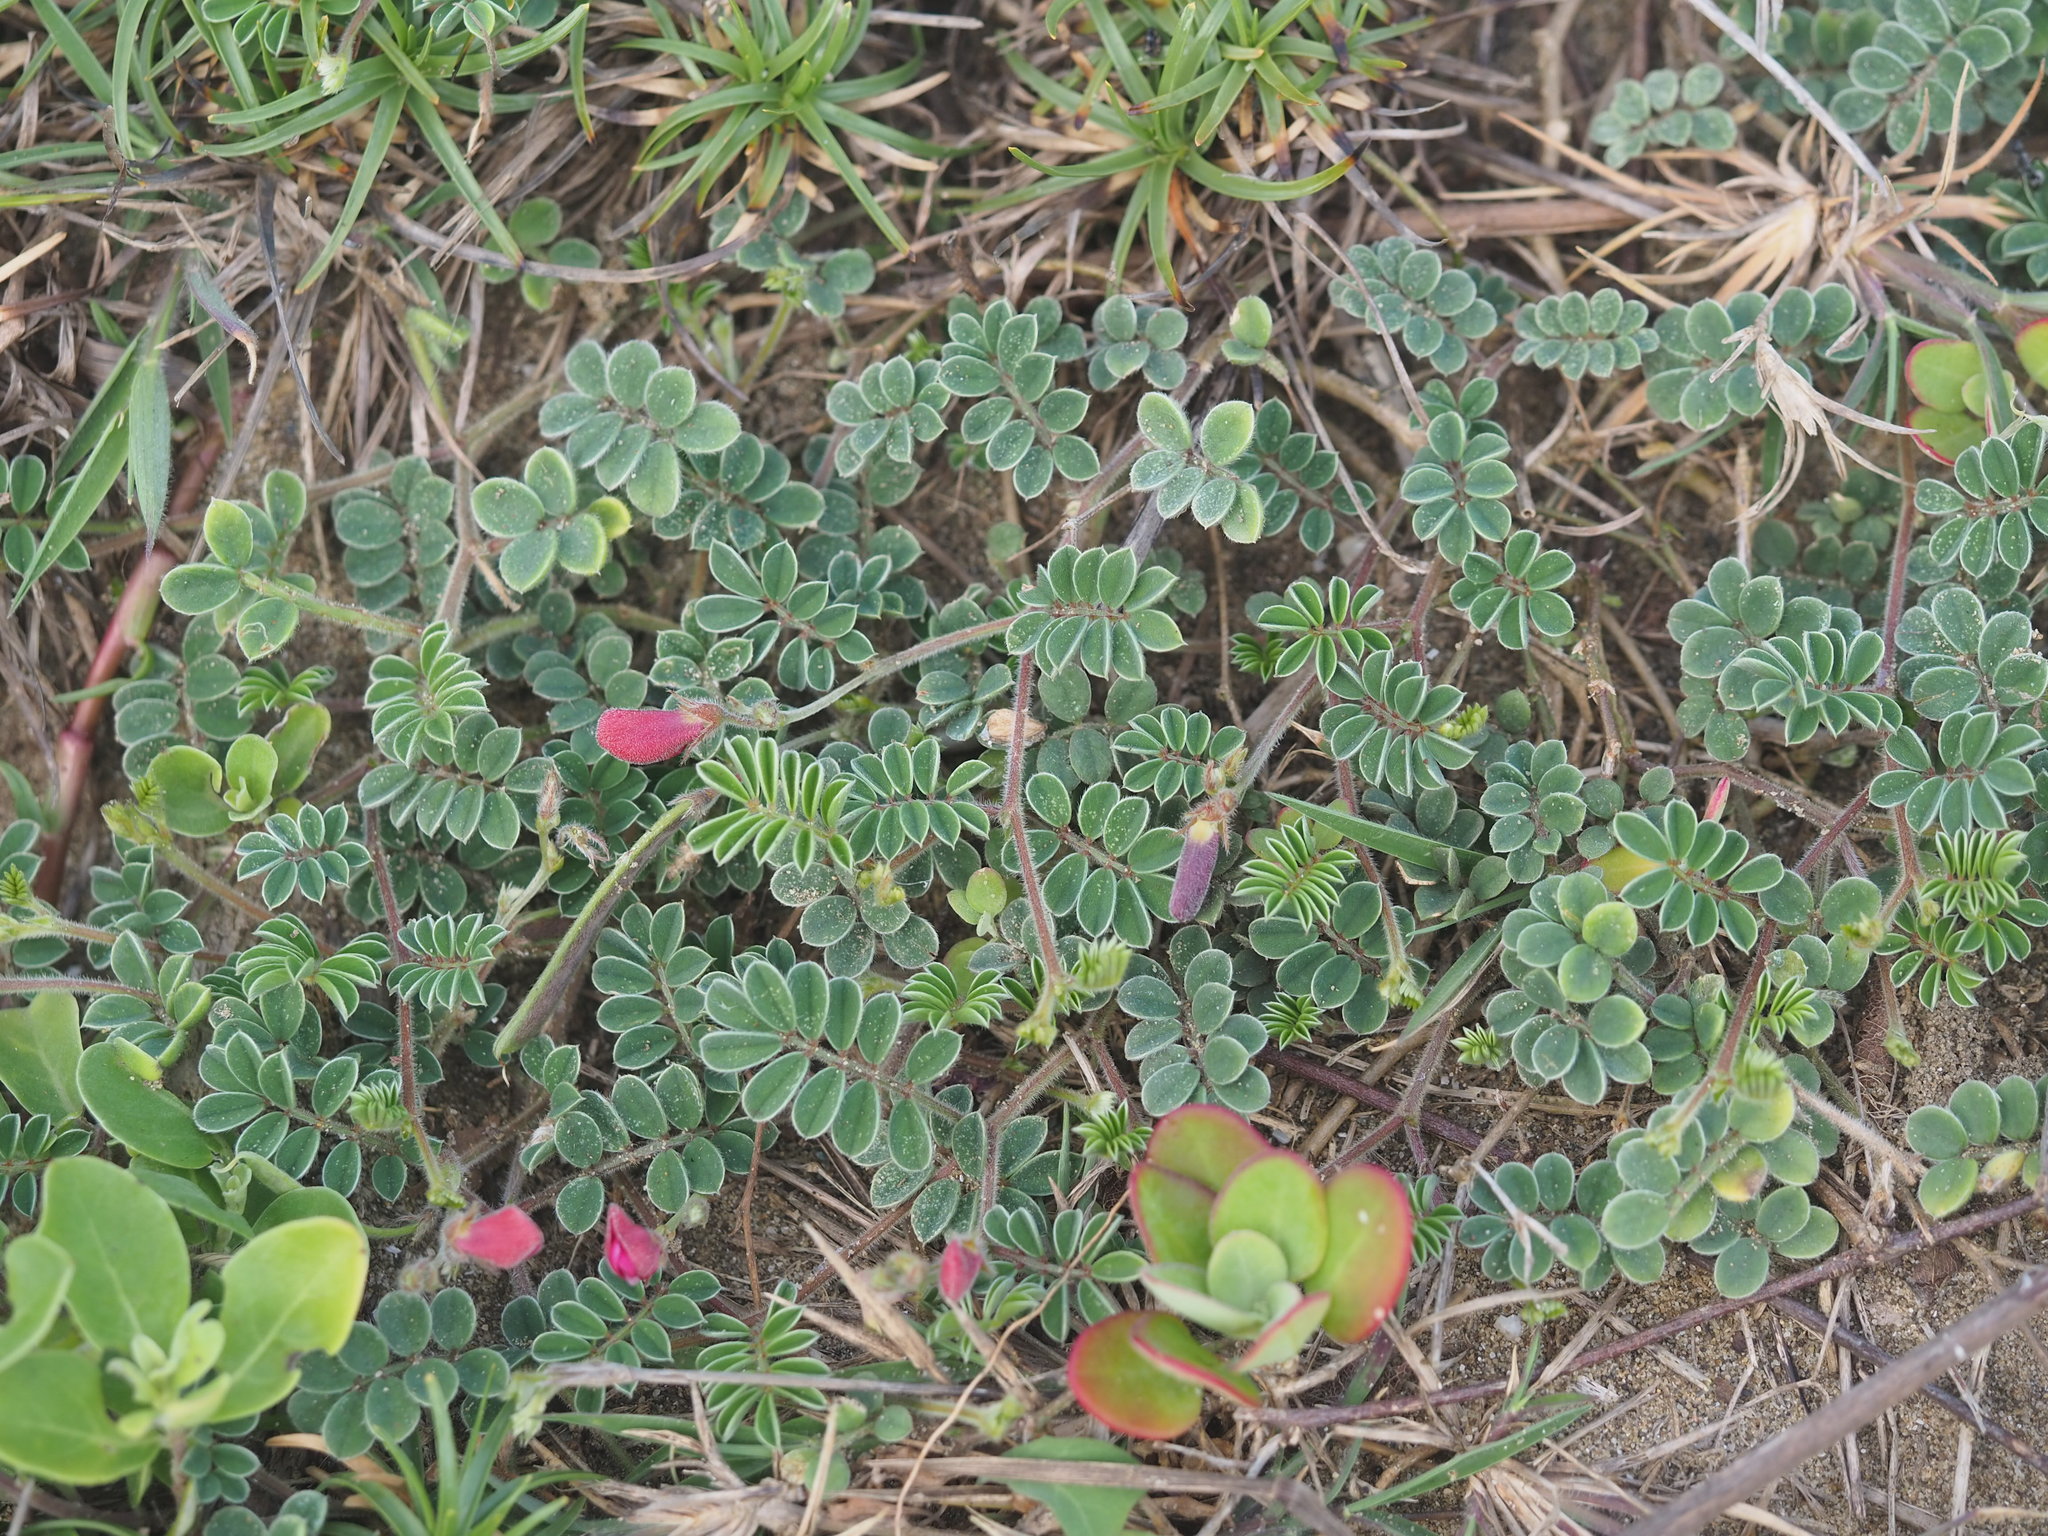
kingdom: Plantae
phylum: Tracheophyta
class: Magnoliopsida
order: Fabales
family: Fabaceae
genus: Tephrosia
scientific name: Tephrosia obovata
